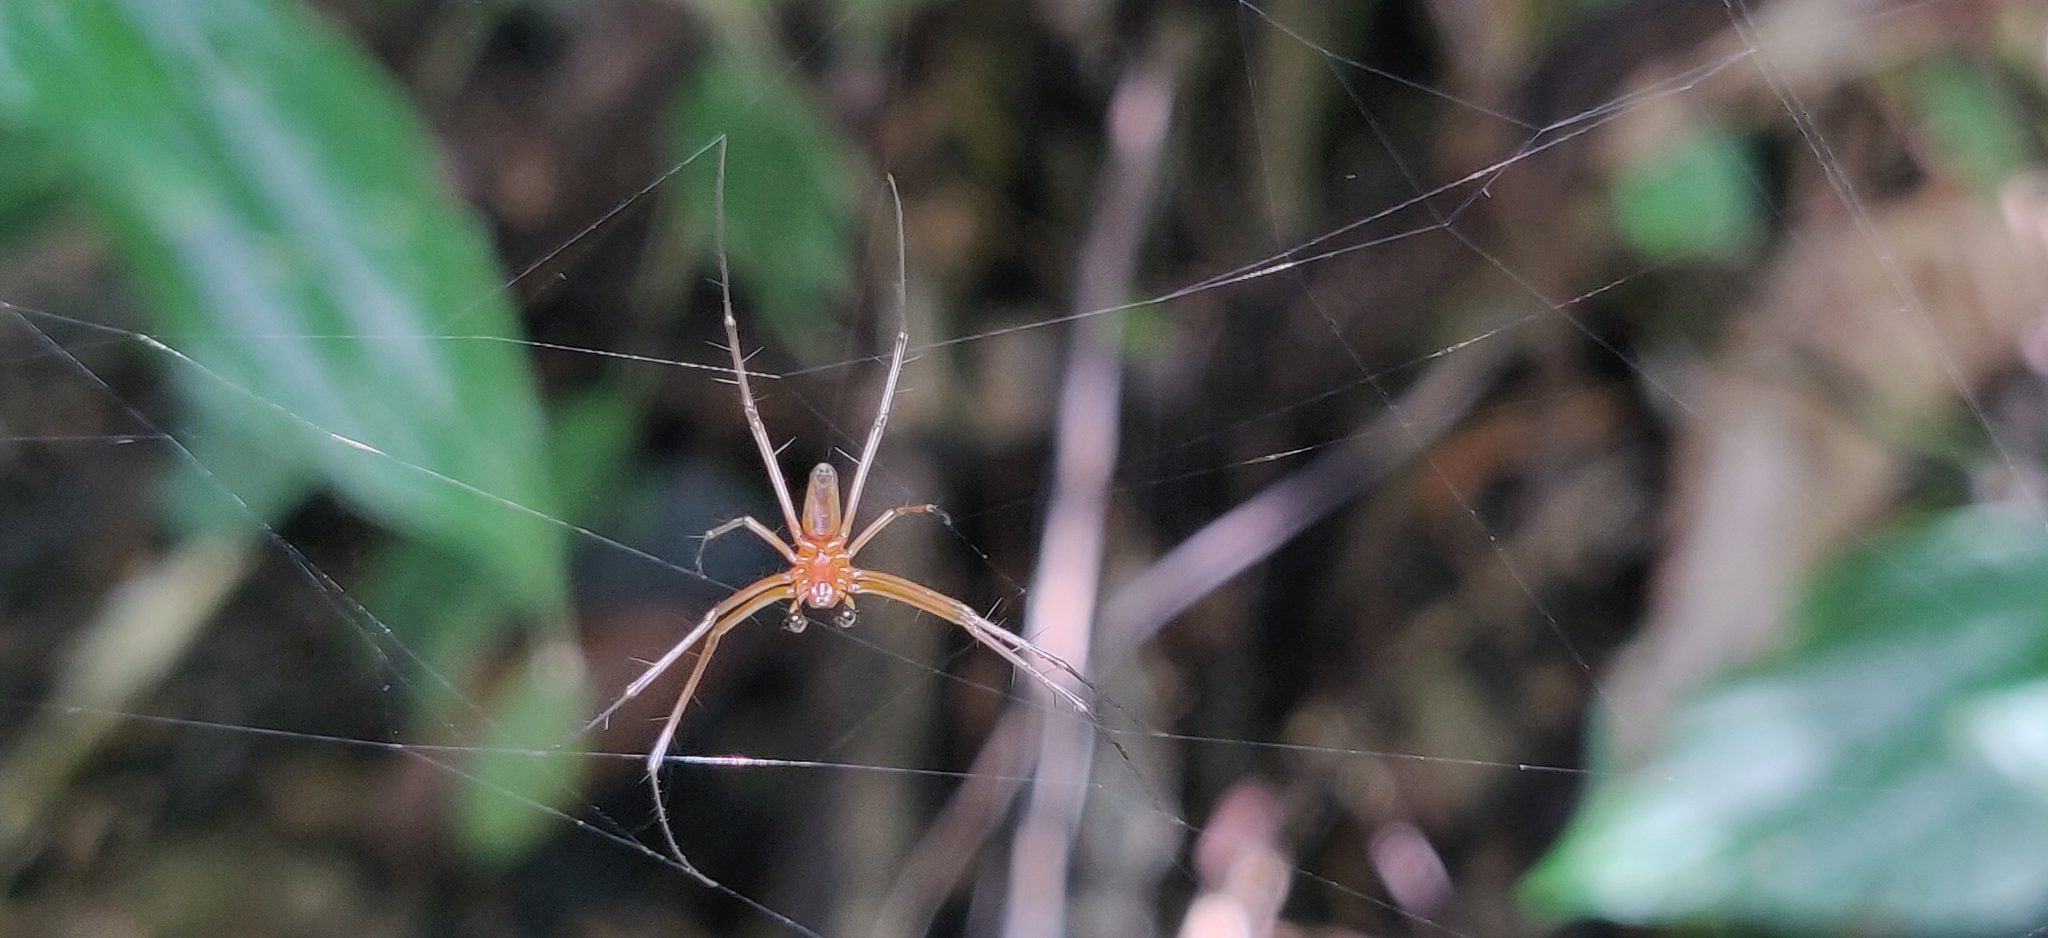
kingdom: Animalia
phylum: Arthropoda
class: Arachnida
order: Araneae
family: Araneidae
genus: Nephila
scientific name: Nephila pilipes
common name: Giant golden orb weaver
